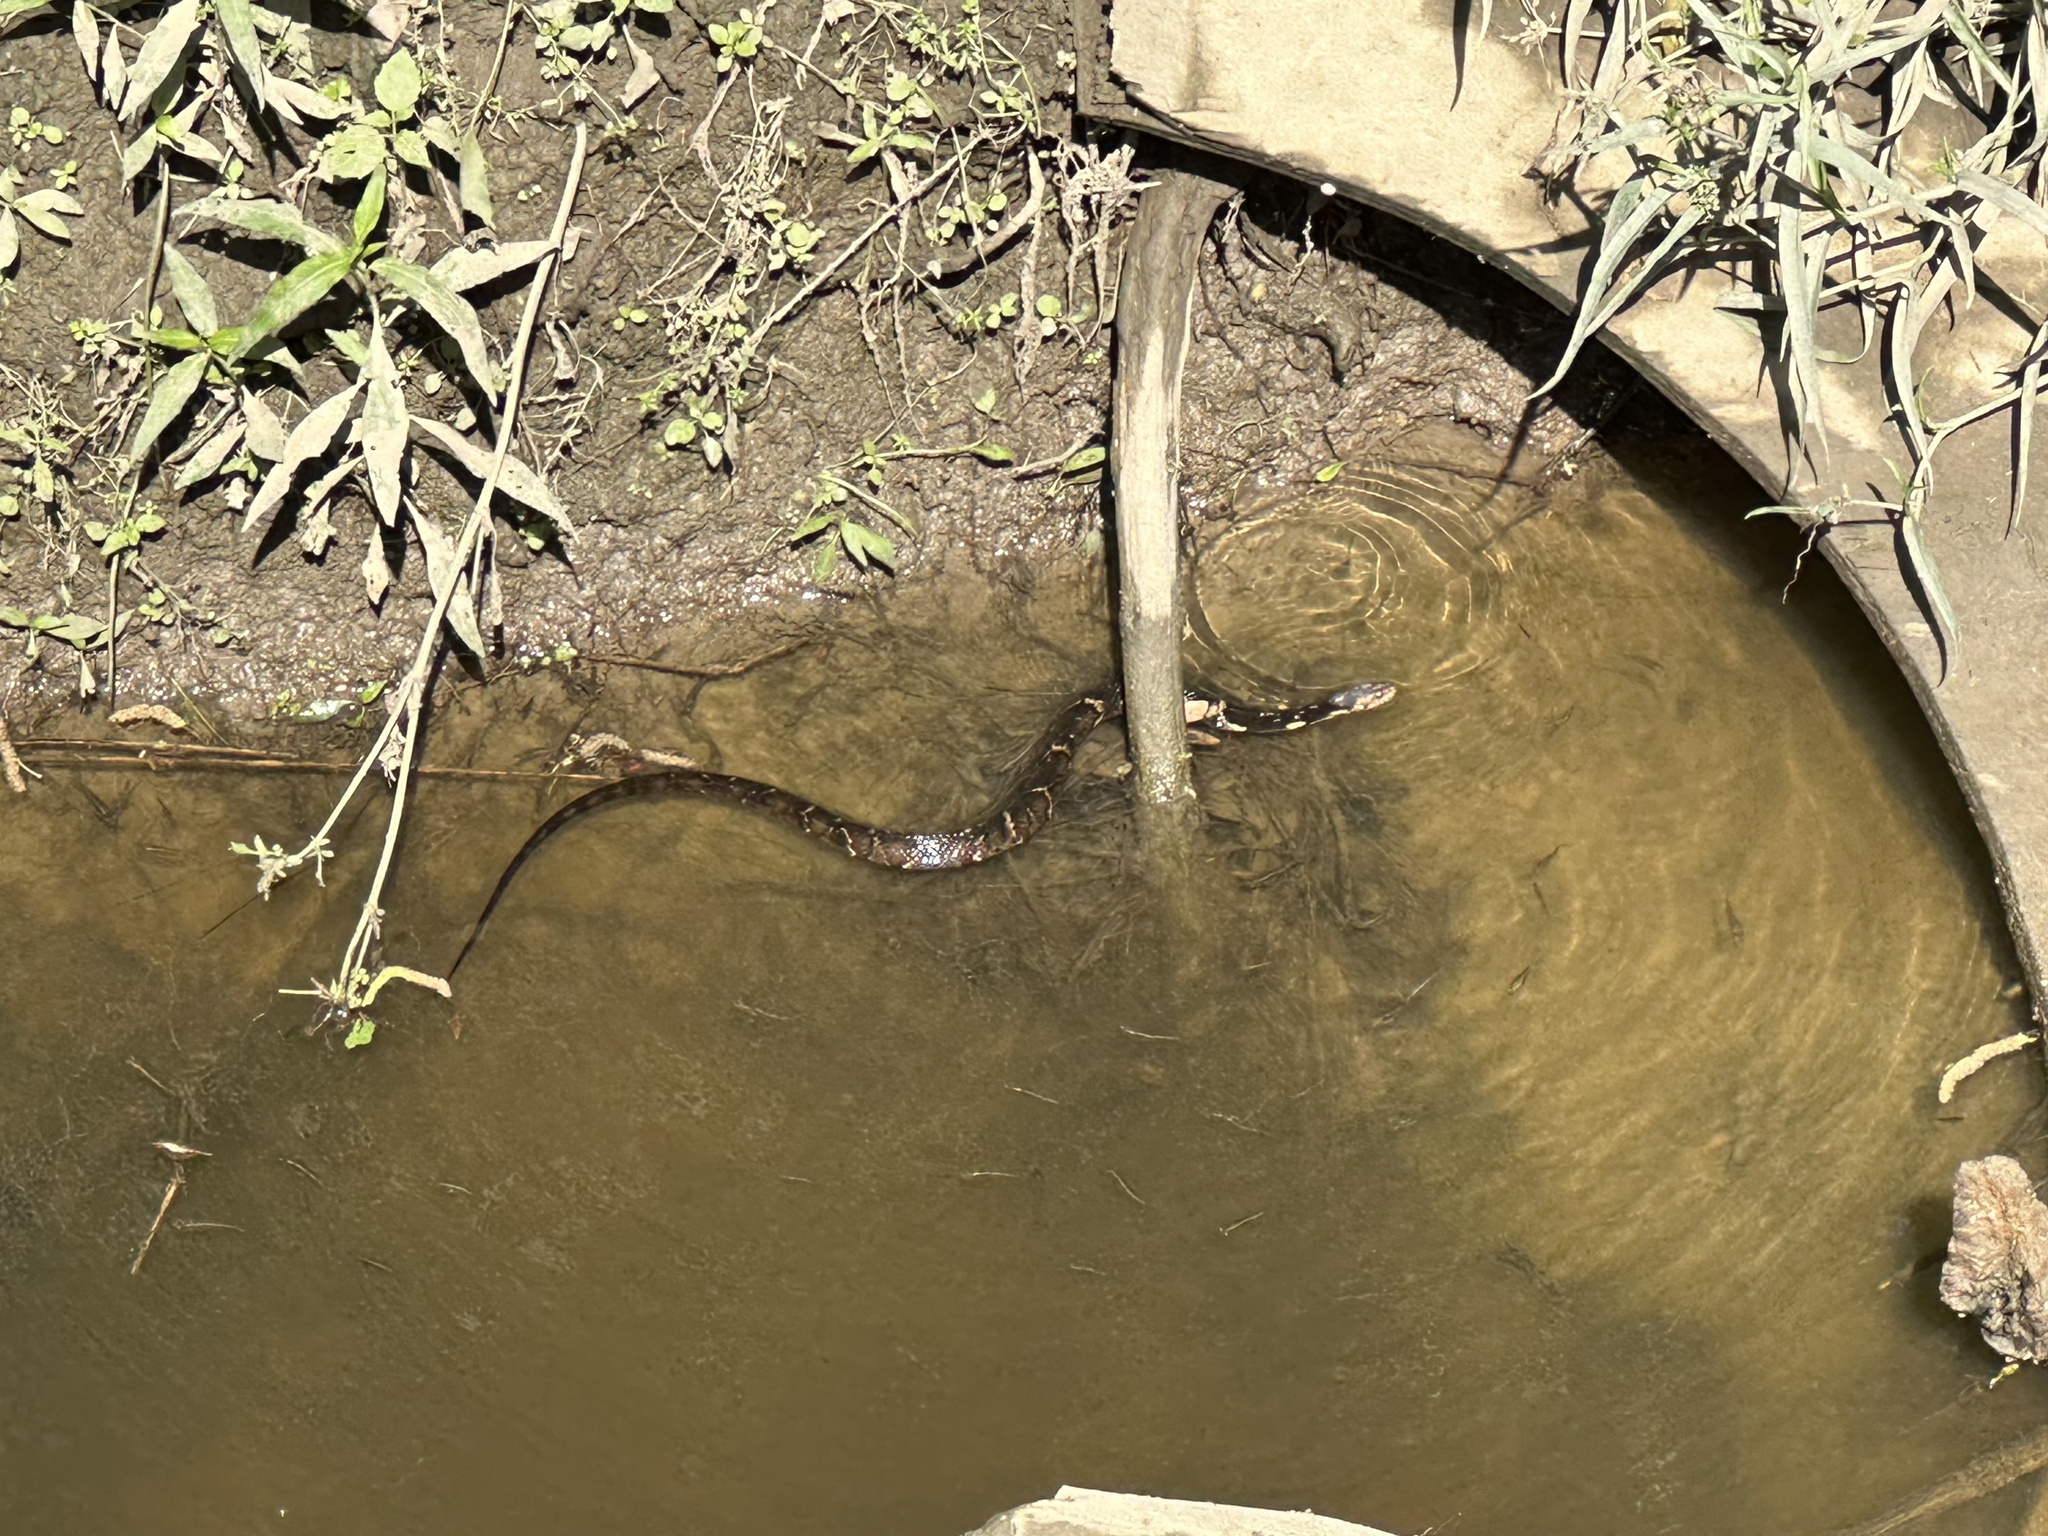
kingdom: Animalia
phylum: Chordata
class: Squamata
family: Colubridae
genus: Nerodia
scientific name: Nerodia fasciata
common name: Southern water snake
